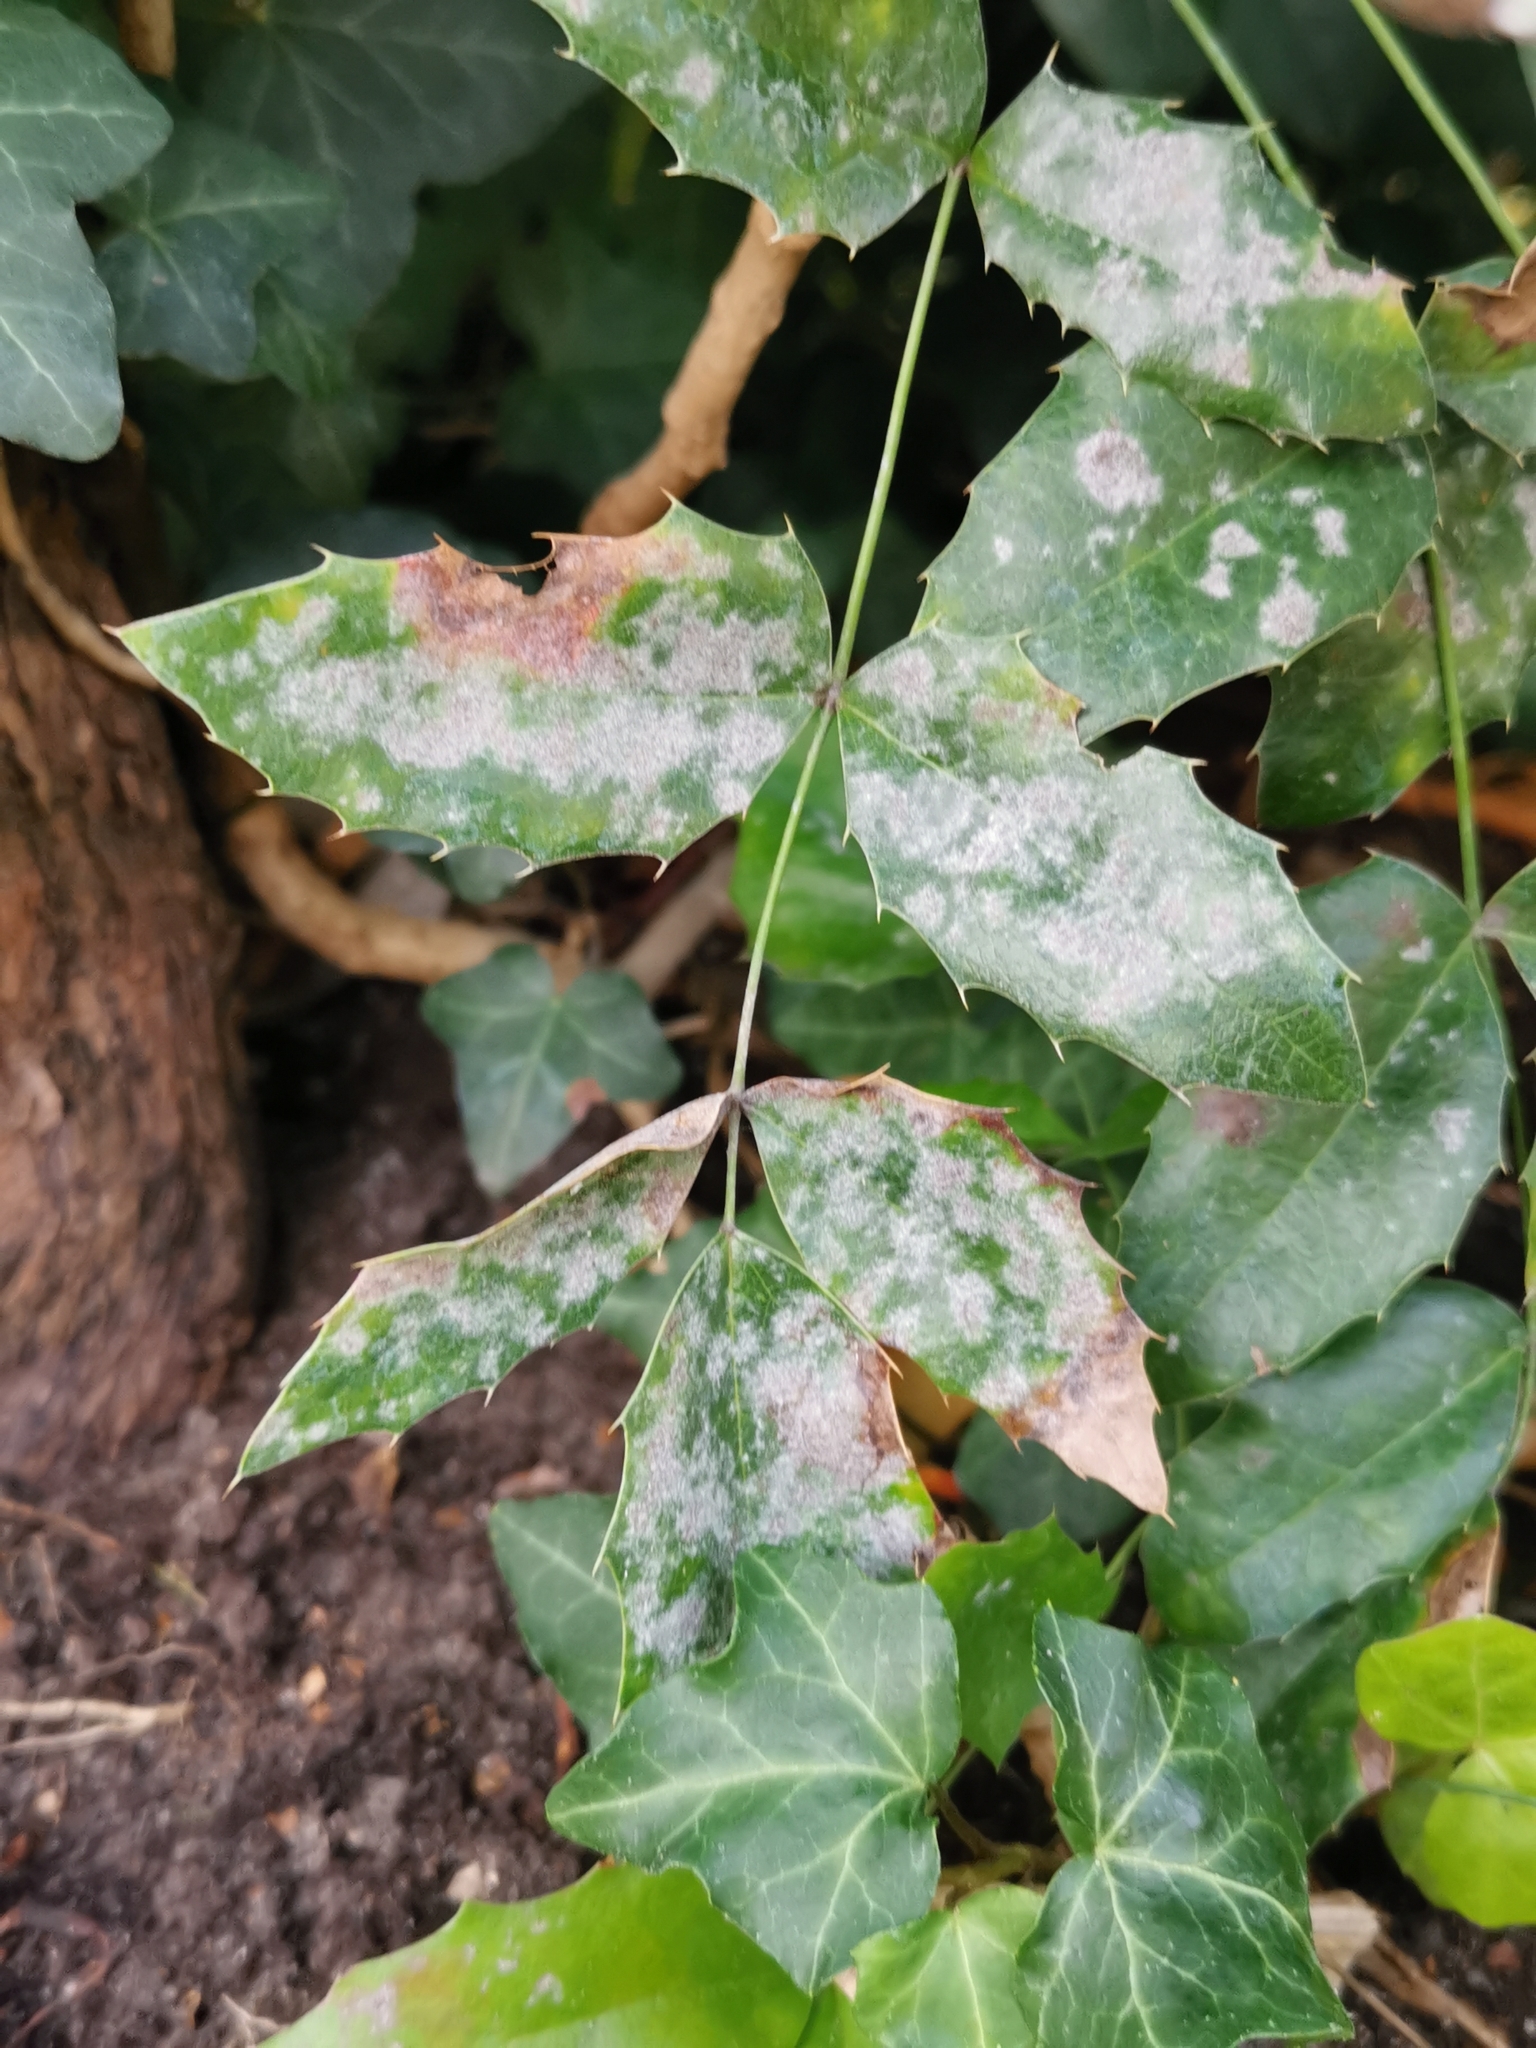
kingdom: Fungi
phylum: Ascomycota
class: Leotiomycetes
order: Helotiales
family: Erysiphaceae
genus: Erysiphe
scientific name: Erysiphe berberidis
